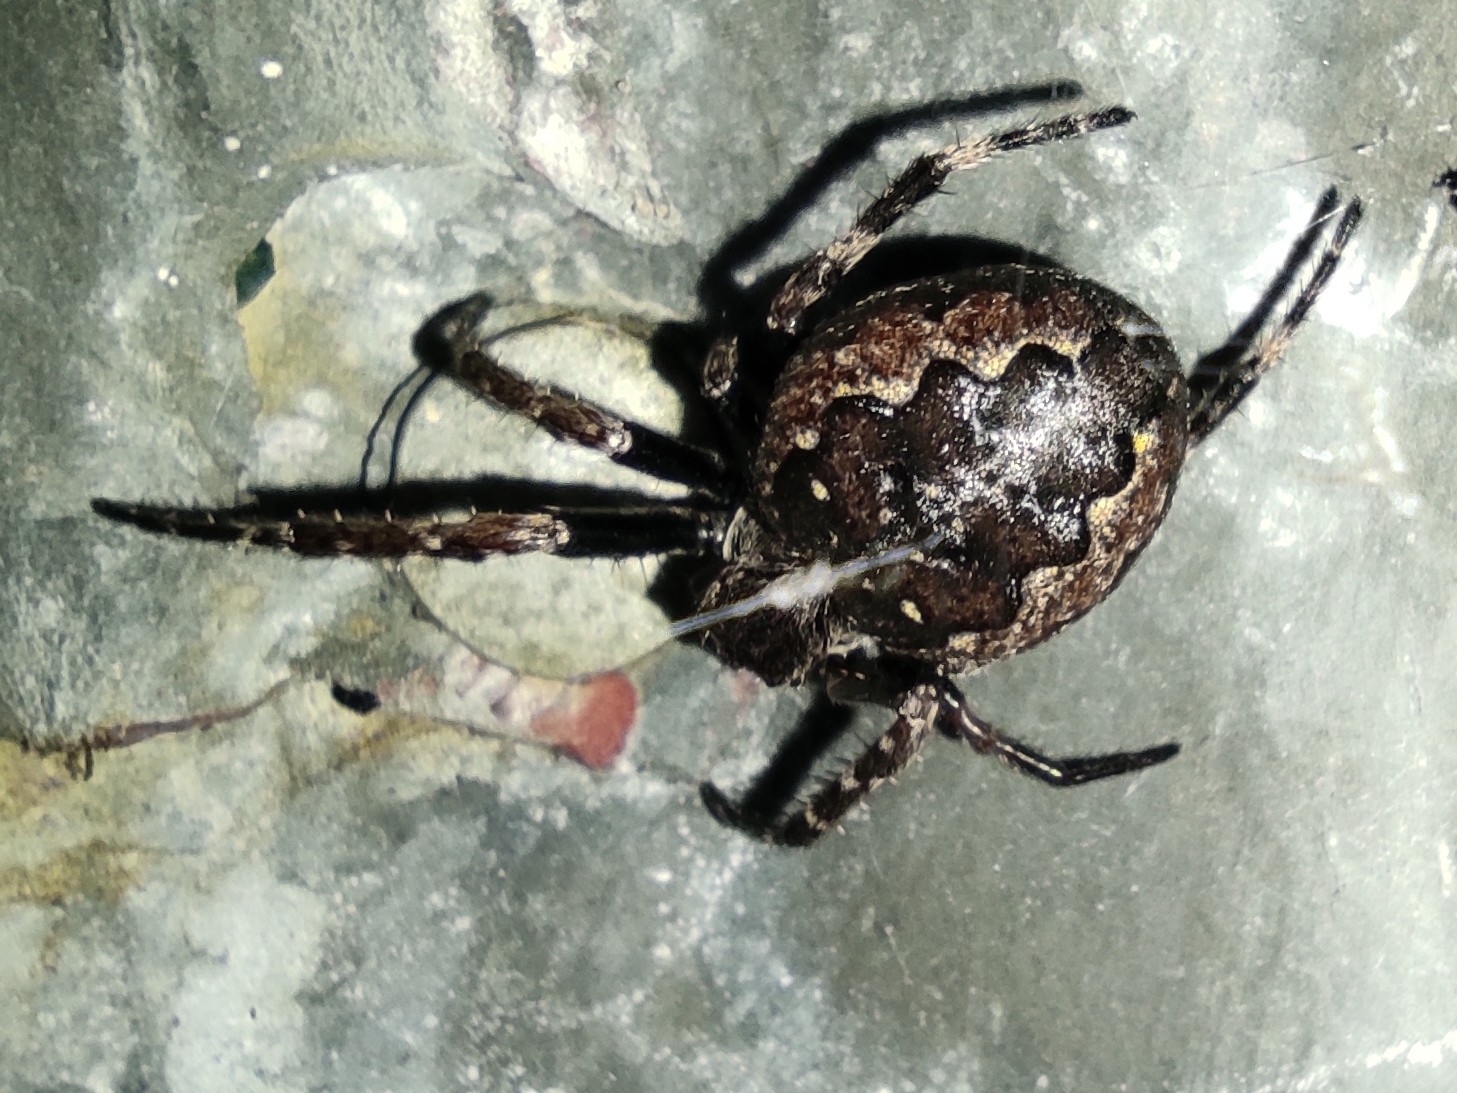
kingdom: Animalia
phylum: Arthropoda
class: Arachnida
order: Araneae
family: Araneidae
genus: Nuctenea
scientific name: Nuctenea umbratica
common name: Toad spider
